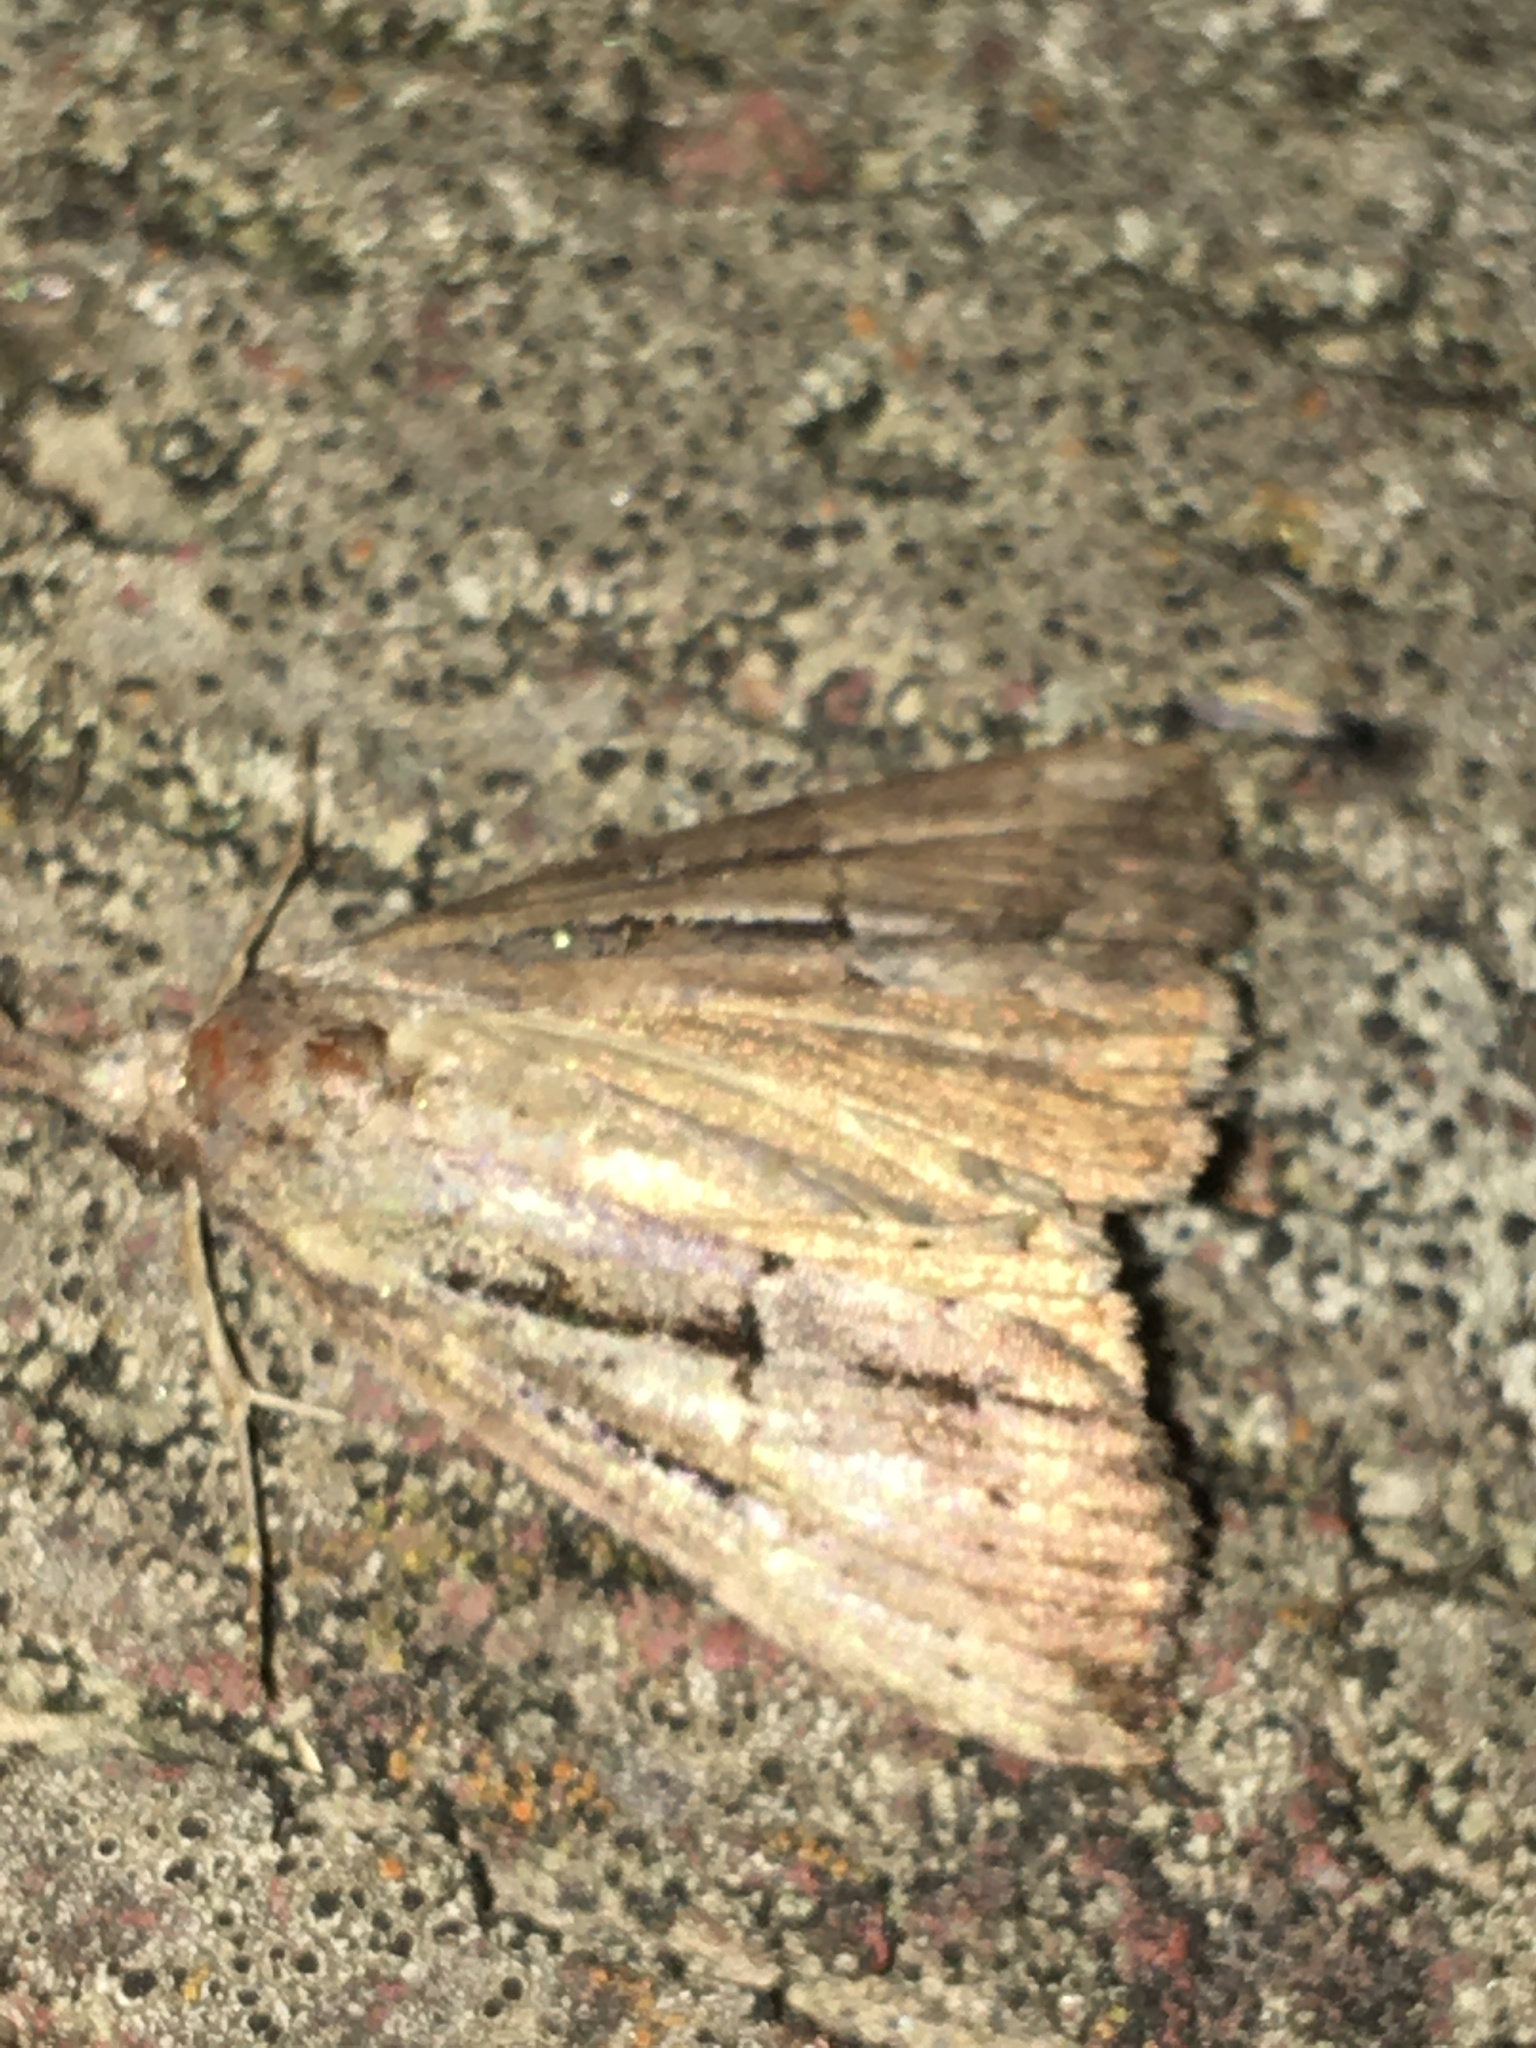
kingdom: Animalia
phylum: Arthropoda
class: Insecta
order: Lepidoptera
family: Erebidae
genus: Hypena
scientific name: Hypena scabra
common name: Green cloverworm
